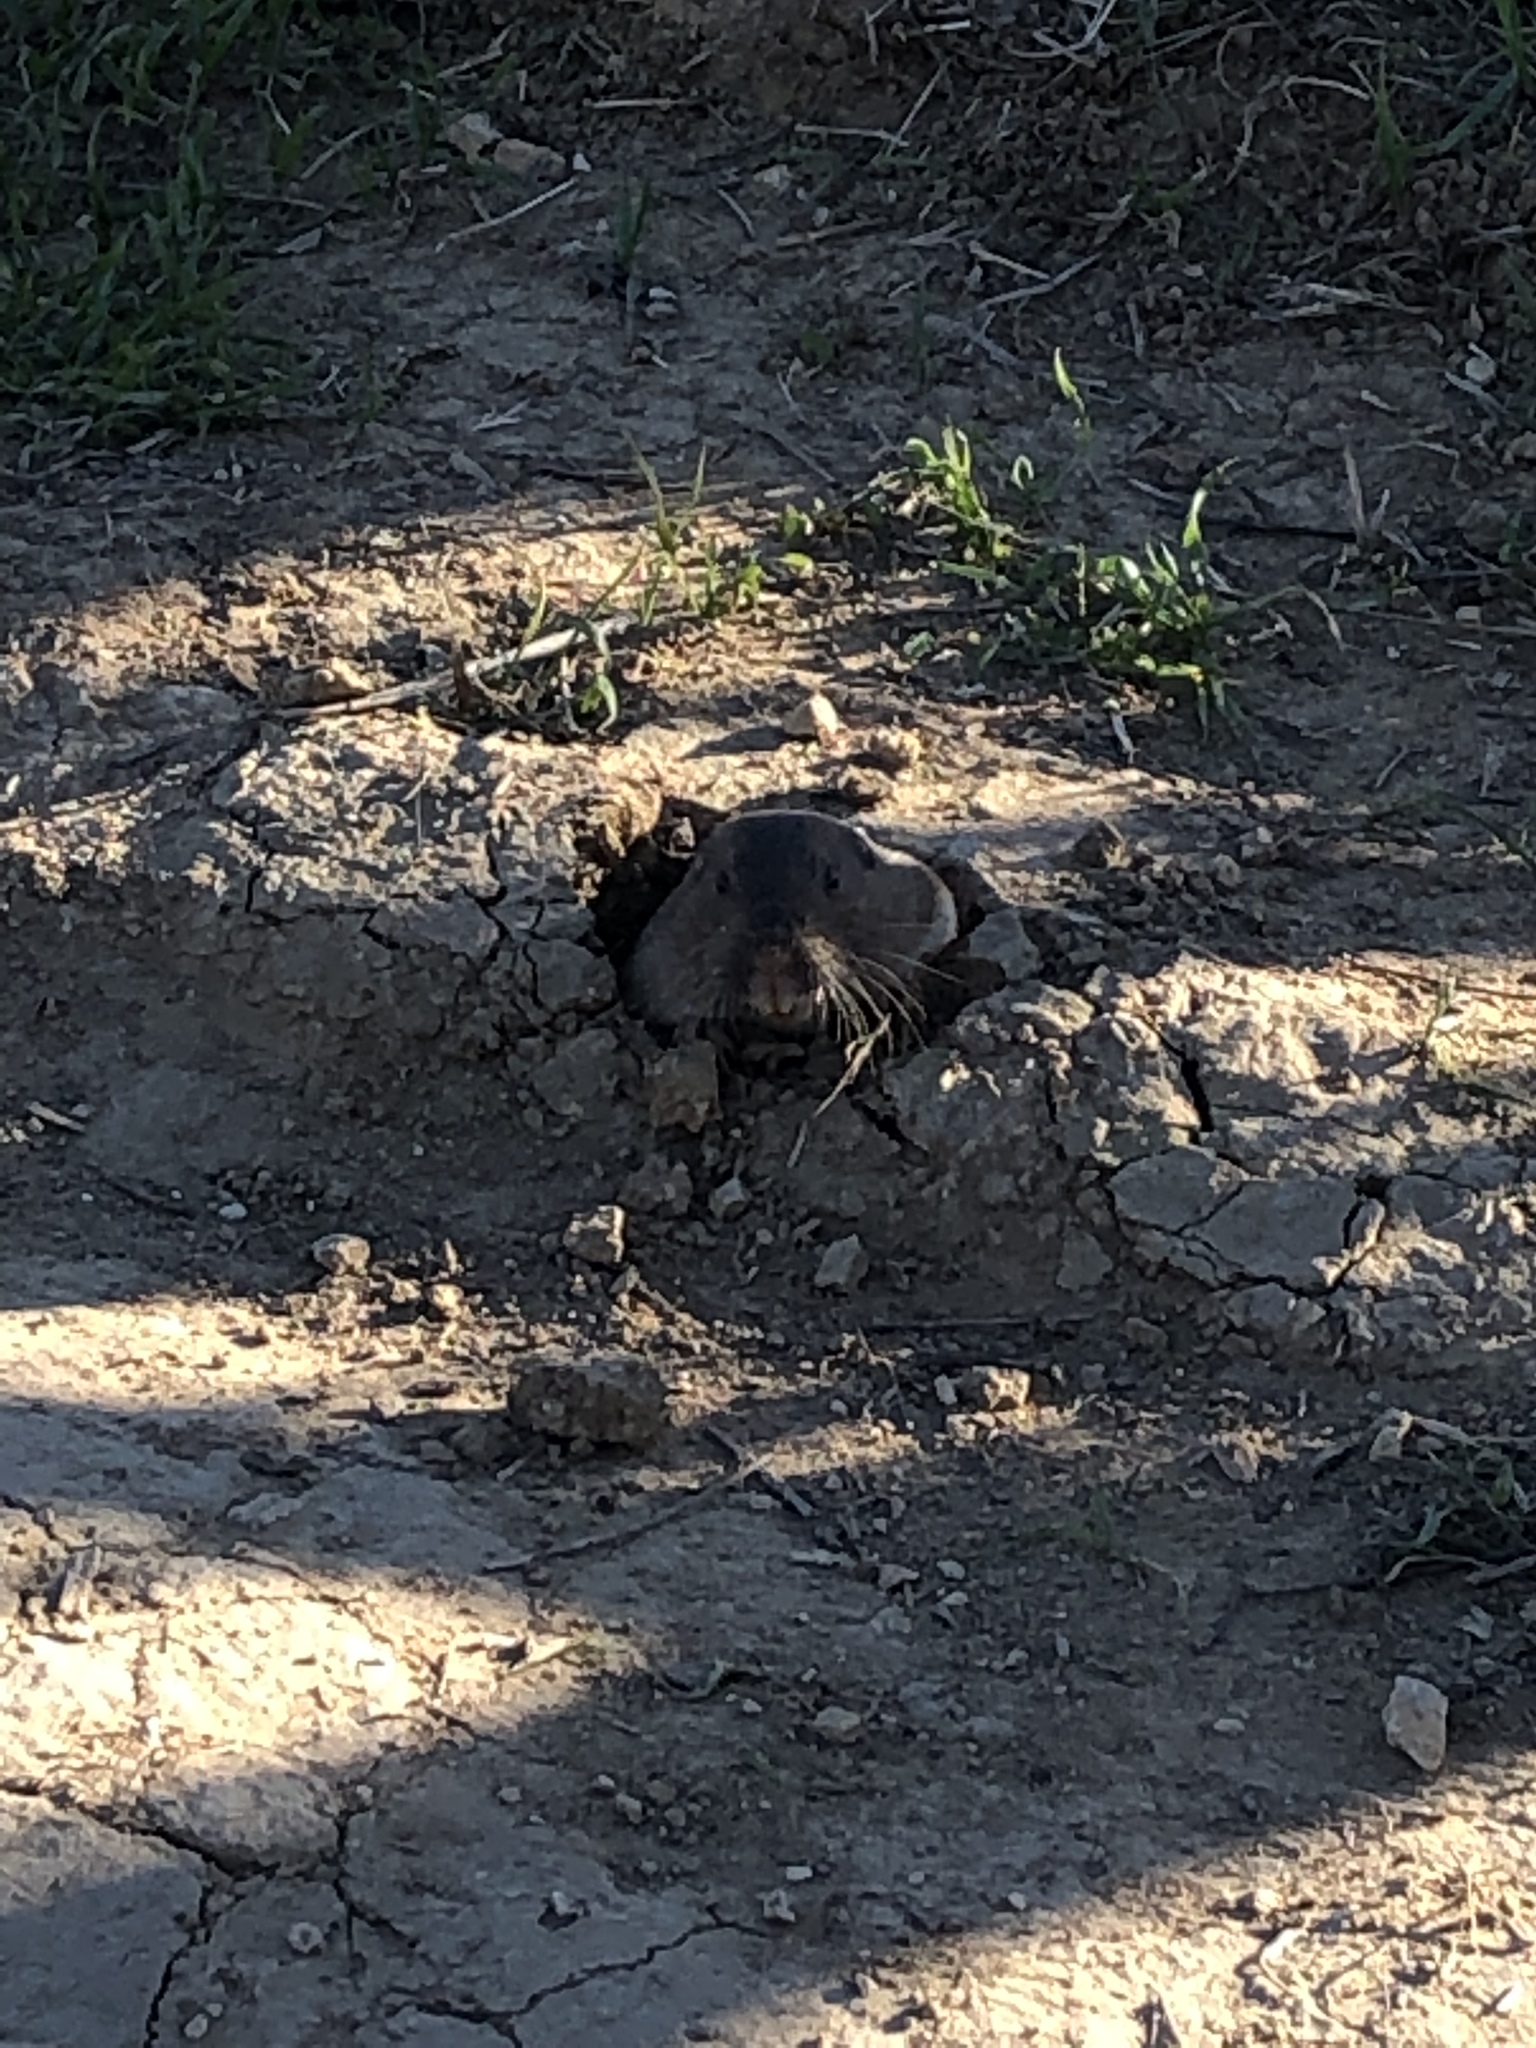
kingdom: Animalia
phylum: Chordata
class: Mammalia
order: Rodentia
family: Geomyidae
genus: Thomomys
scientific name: Thomomys bottae
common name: Botta's pocket gopher
